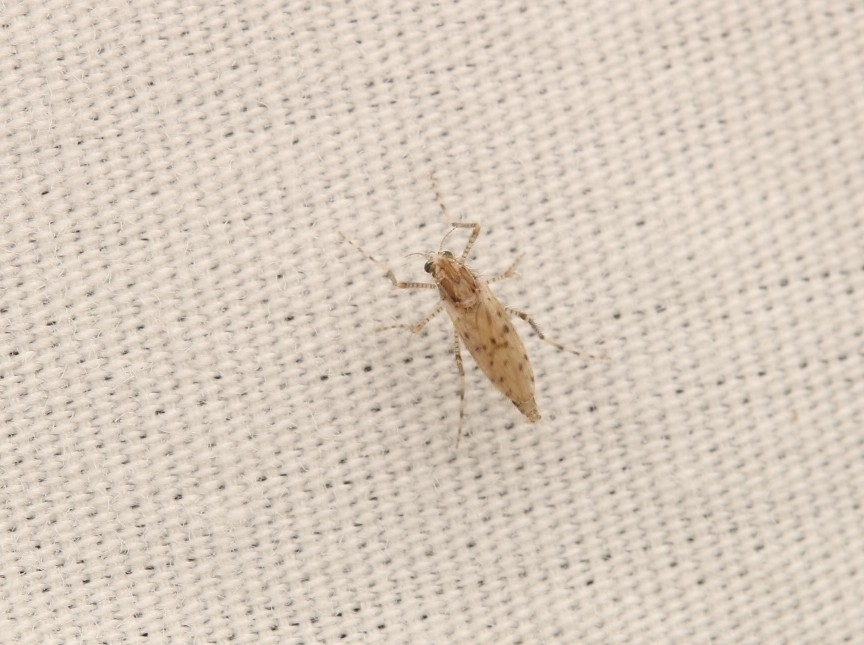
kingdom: Animalia
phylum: Arthropoda
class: Insecta
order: Diptera
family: Chaoboridae
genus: Chaoborus
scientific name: Chaoborus punctipennis
